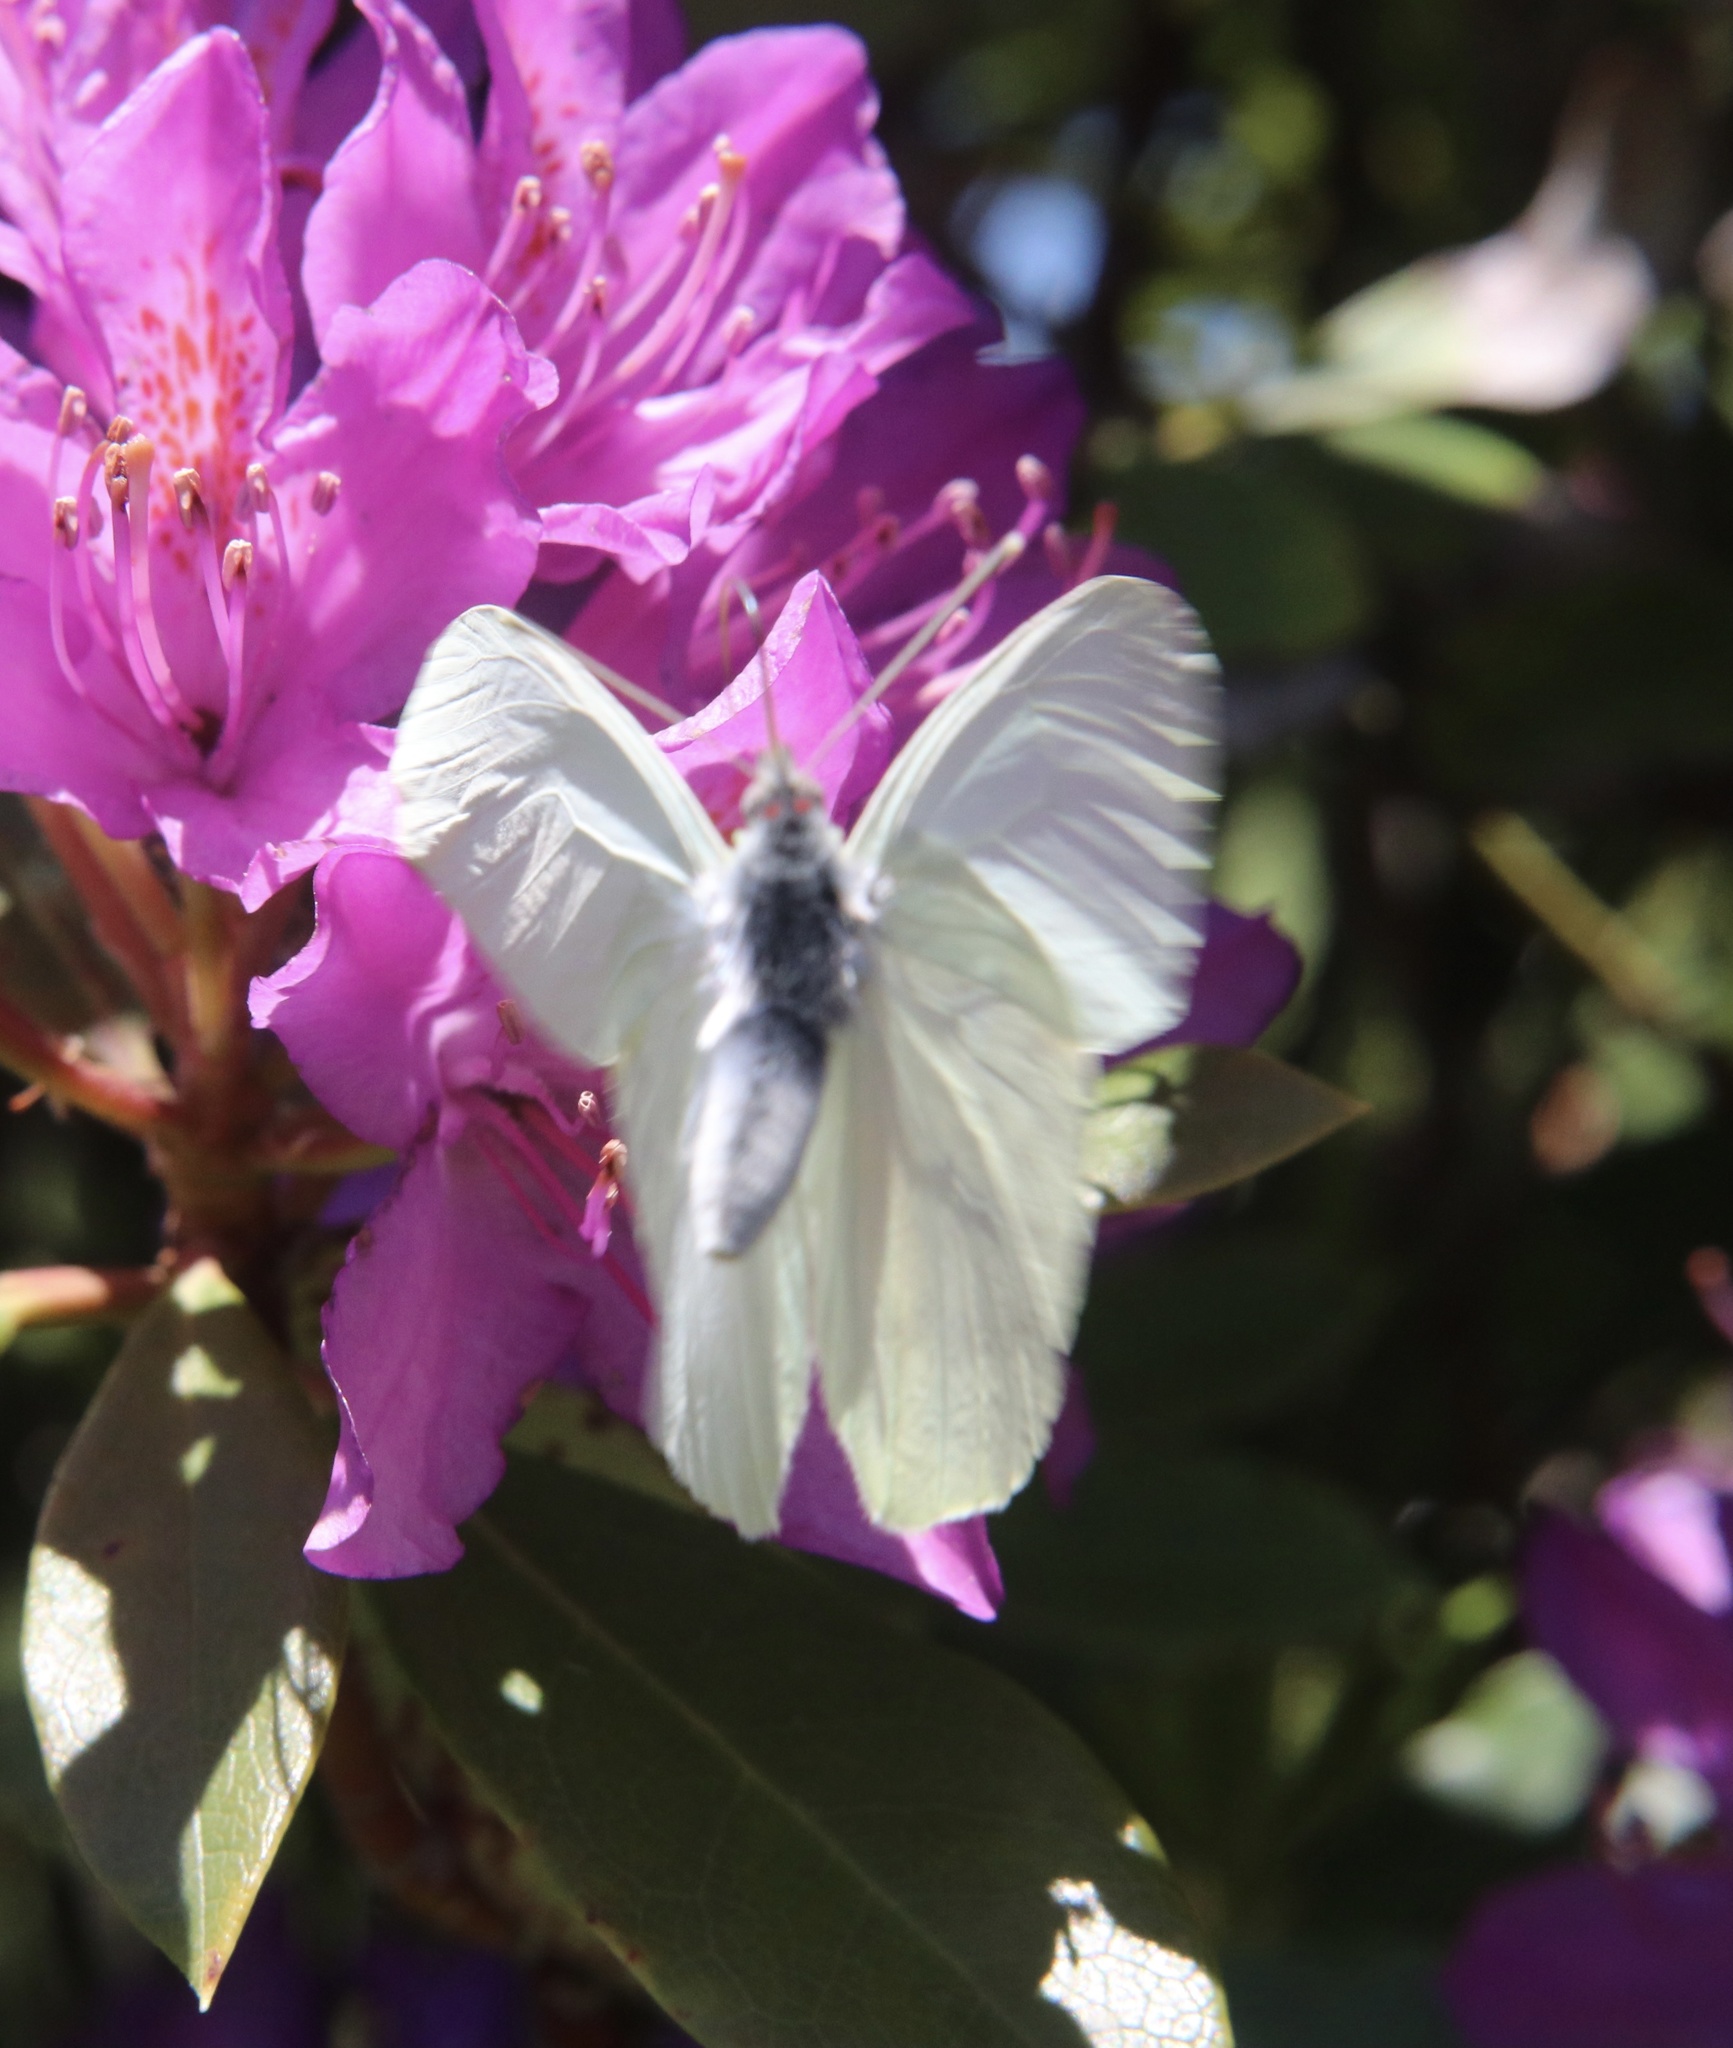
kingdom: Animalia
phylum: Arthropoda
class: Insecta
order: Lepidoptera
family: Pieridae
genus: Mathania
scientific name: Mathania leucothea
